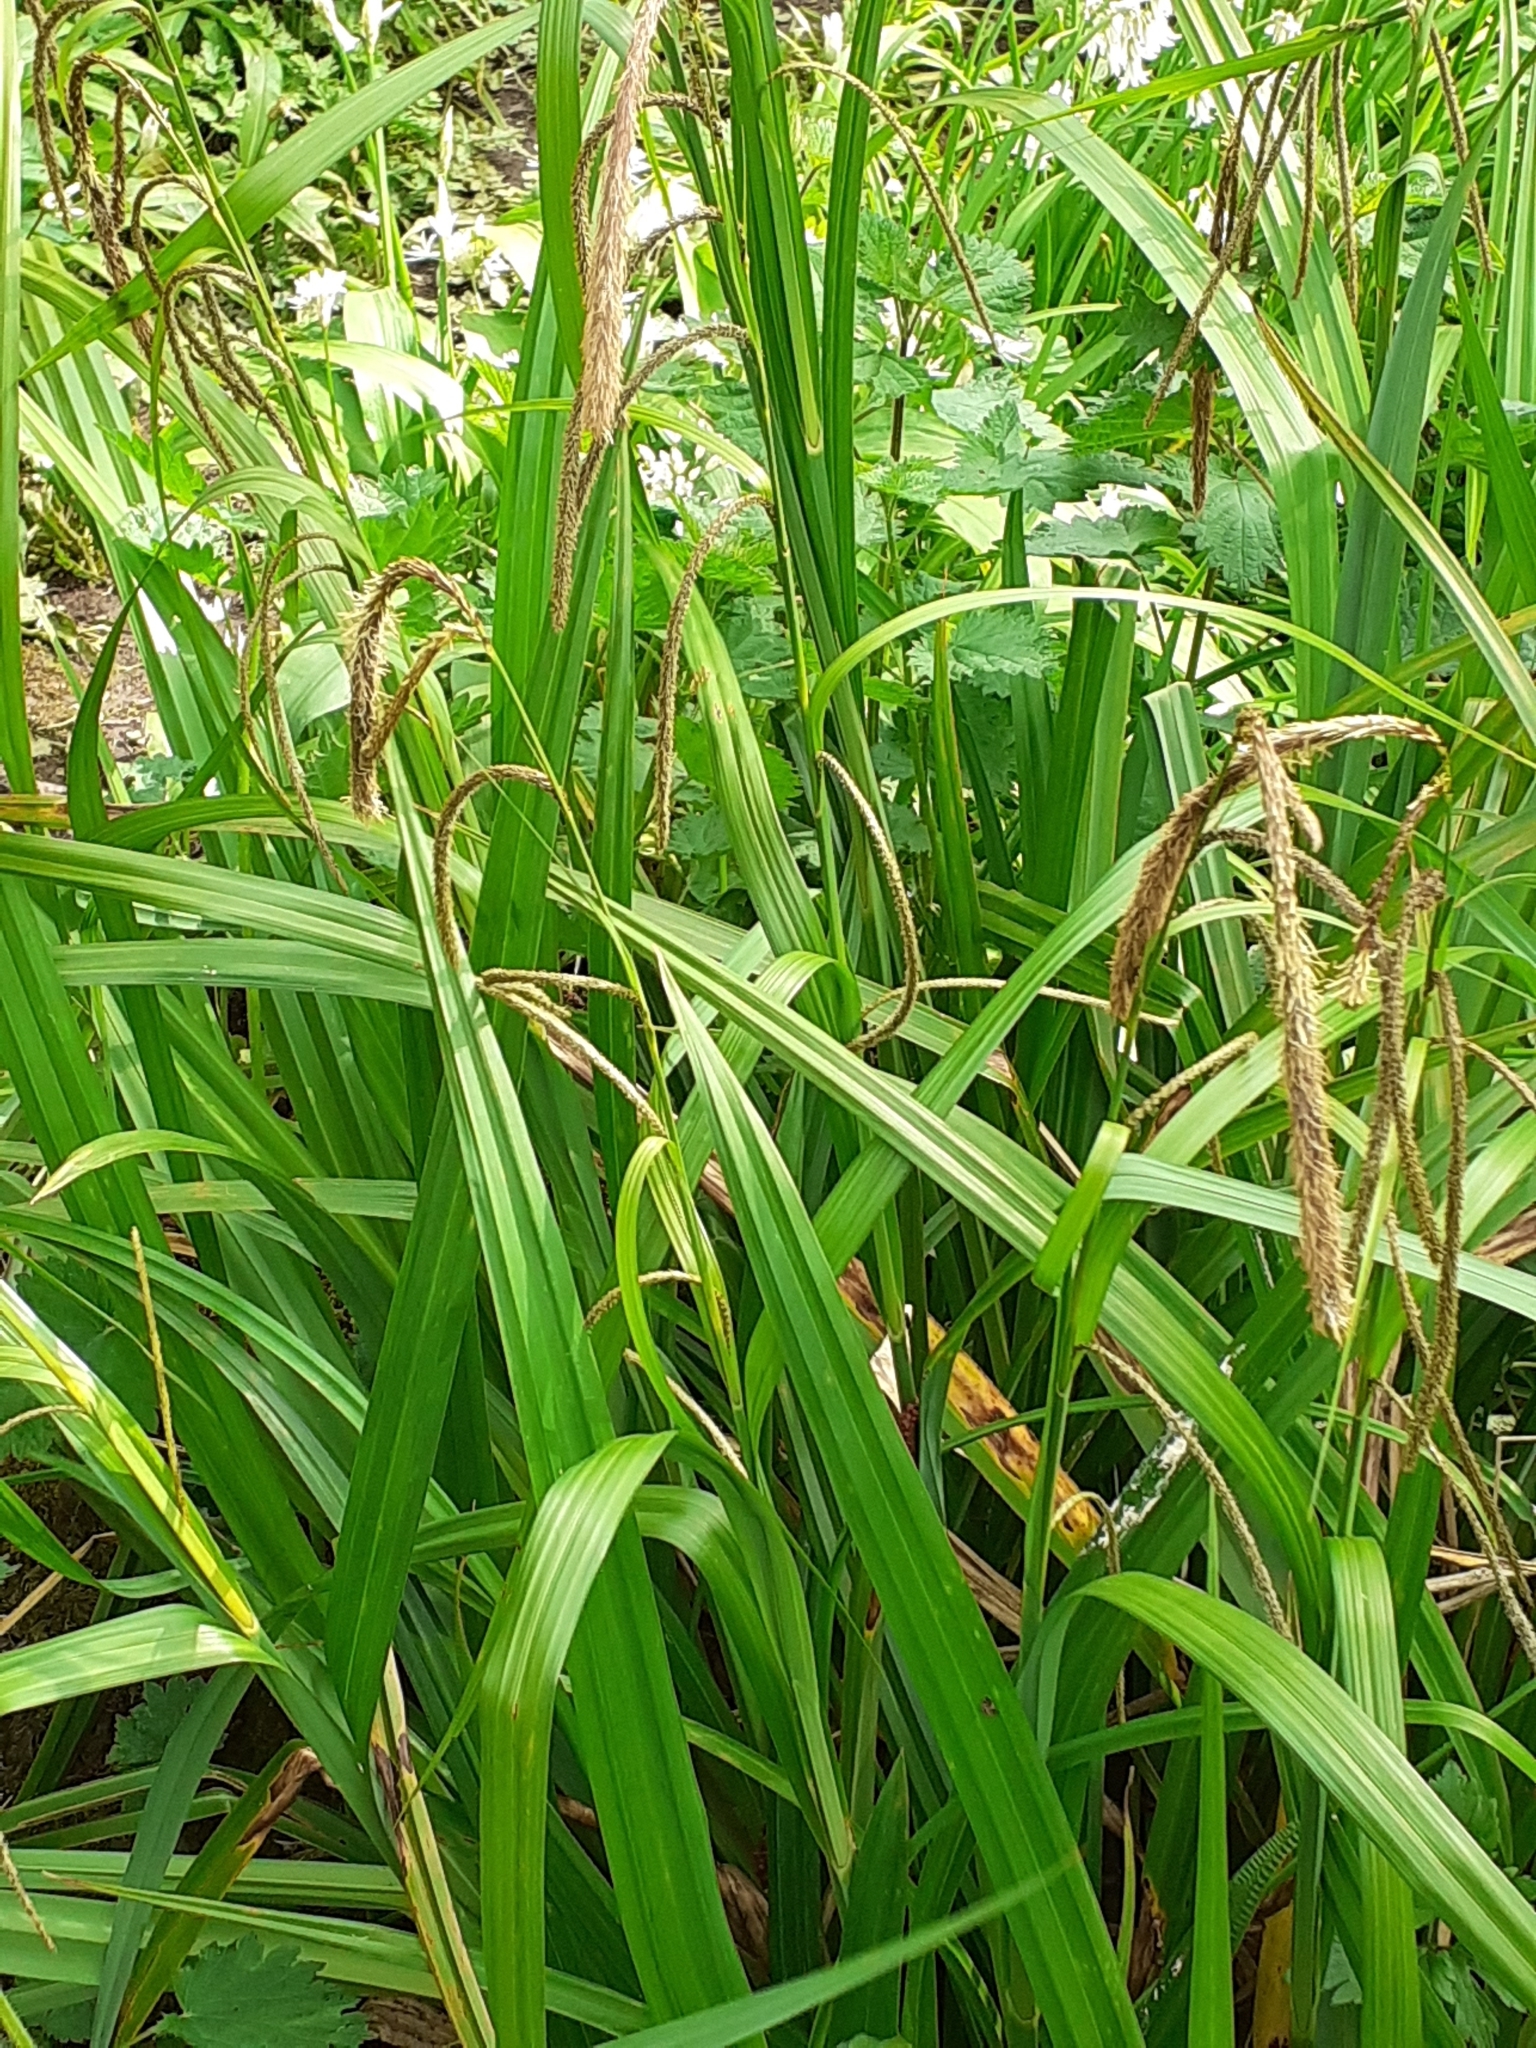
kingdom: Plantae
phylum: Tracheophyta
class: Liliopsida
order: Poales
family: Cyperaceae
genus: Carex
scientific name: Carex pendula
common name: Pendulous sedge
